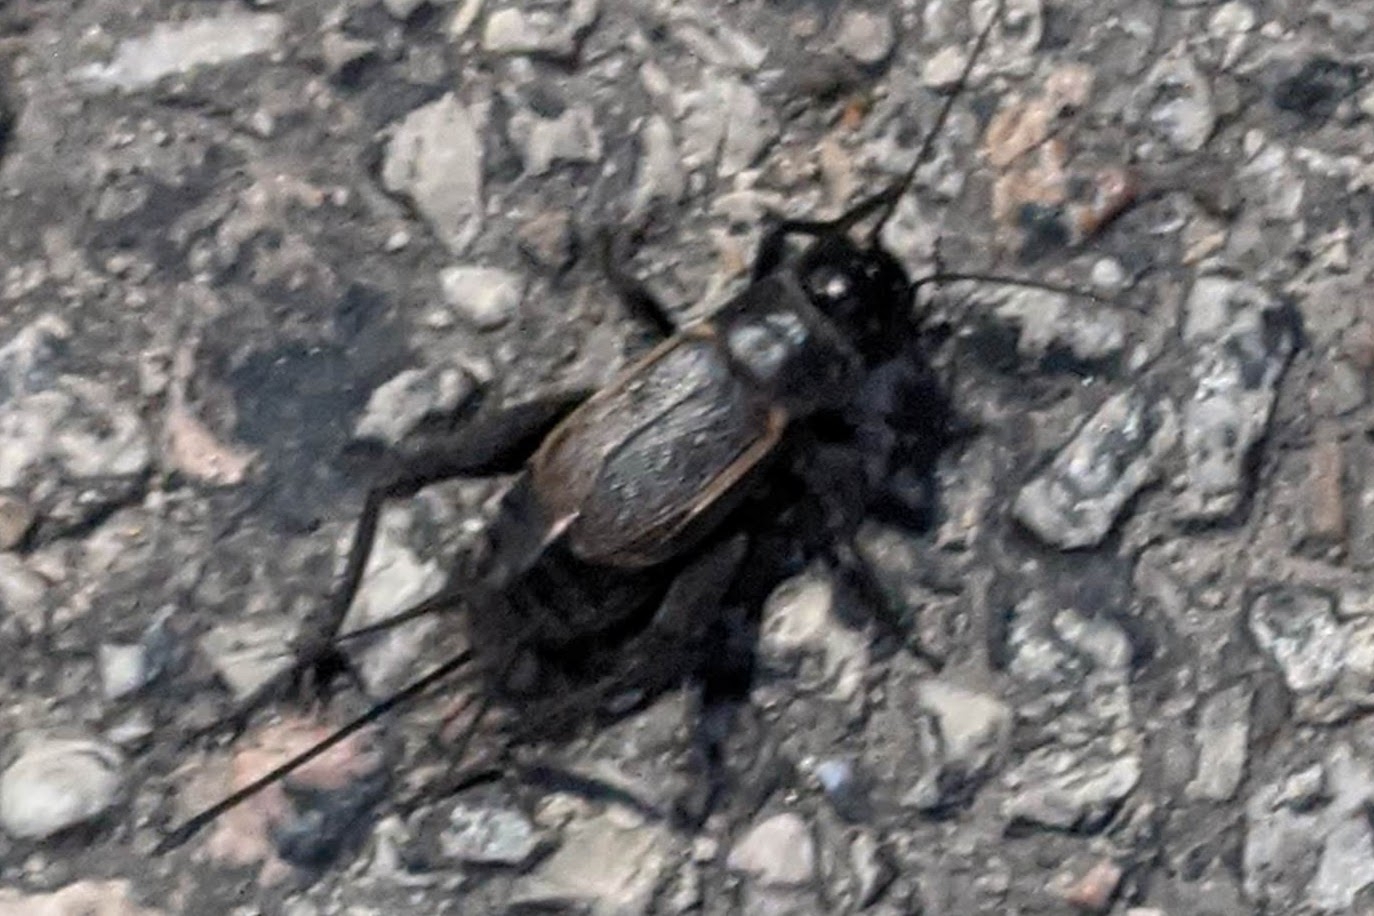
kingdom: Animalia
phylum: Arthropoda
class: Insecta
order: Orthoptera
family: Gryllidae
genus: Gryllus
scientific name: Gryllus pennsylvanicus
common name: Fall field cricket
